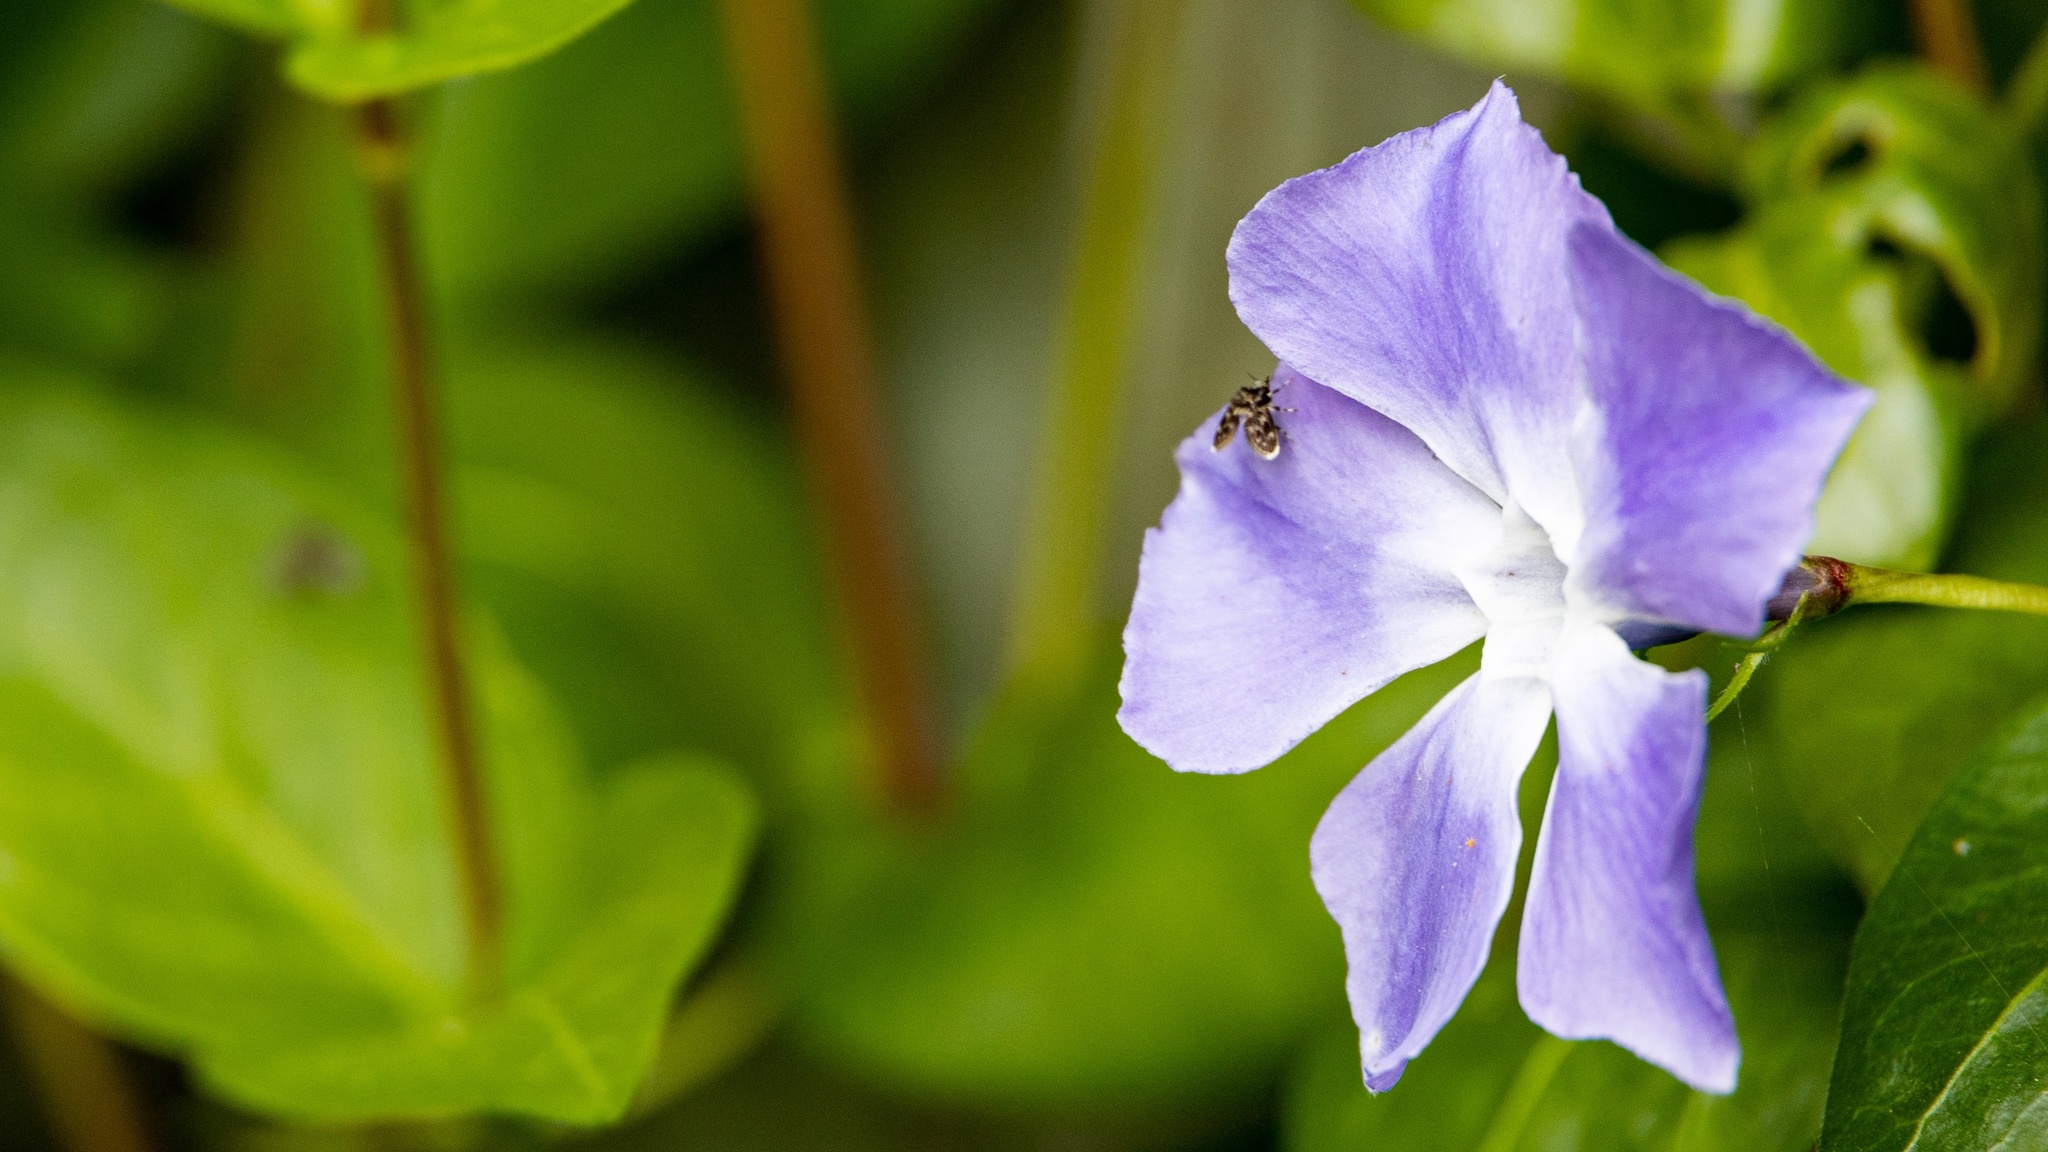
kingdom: Plantae
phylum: Tracheophyta
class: Magnoliopsida
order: Gentianales
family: Apocynaceae
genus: Vinca
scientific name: Vinca major
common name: Greater periwinkle
